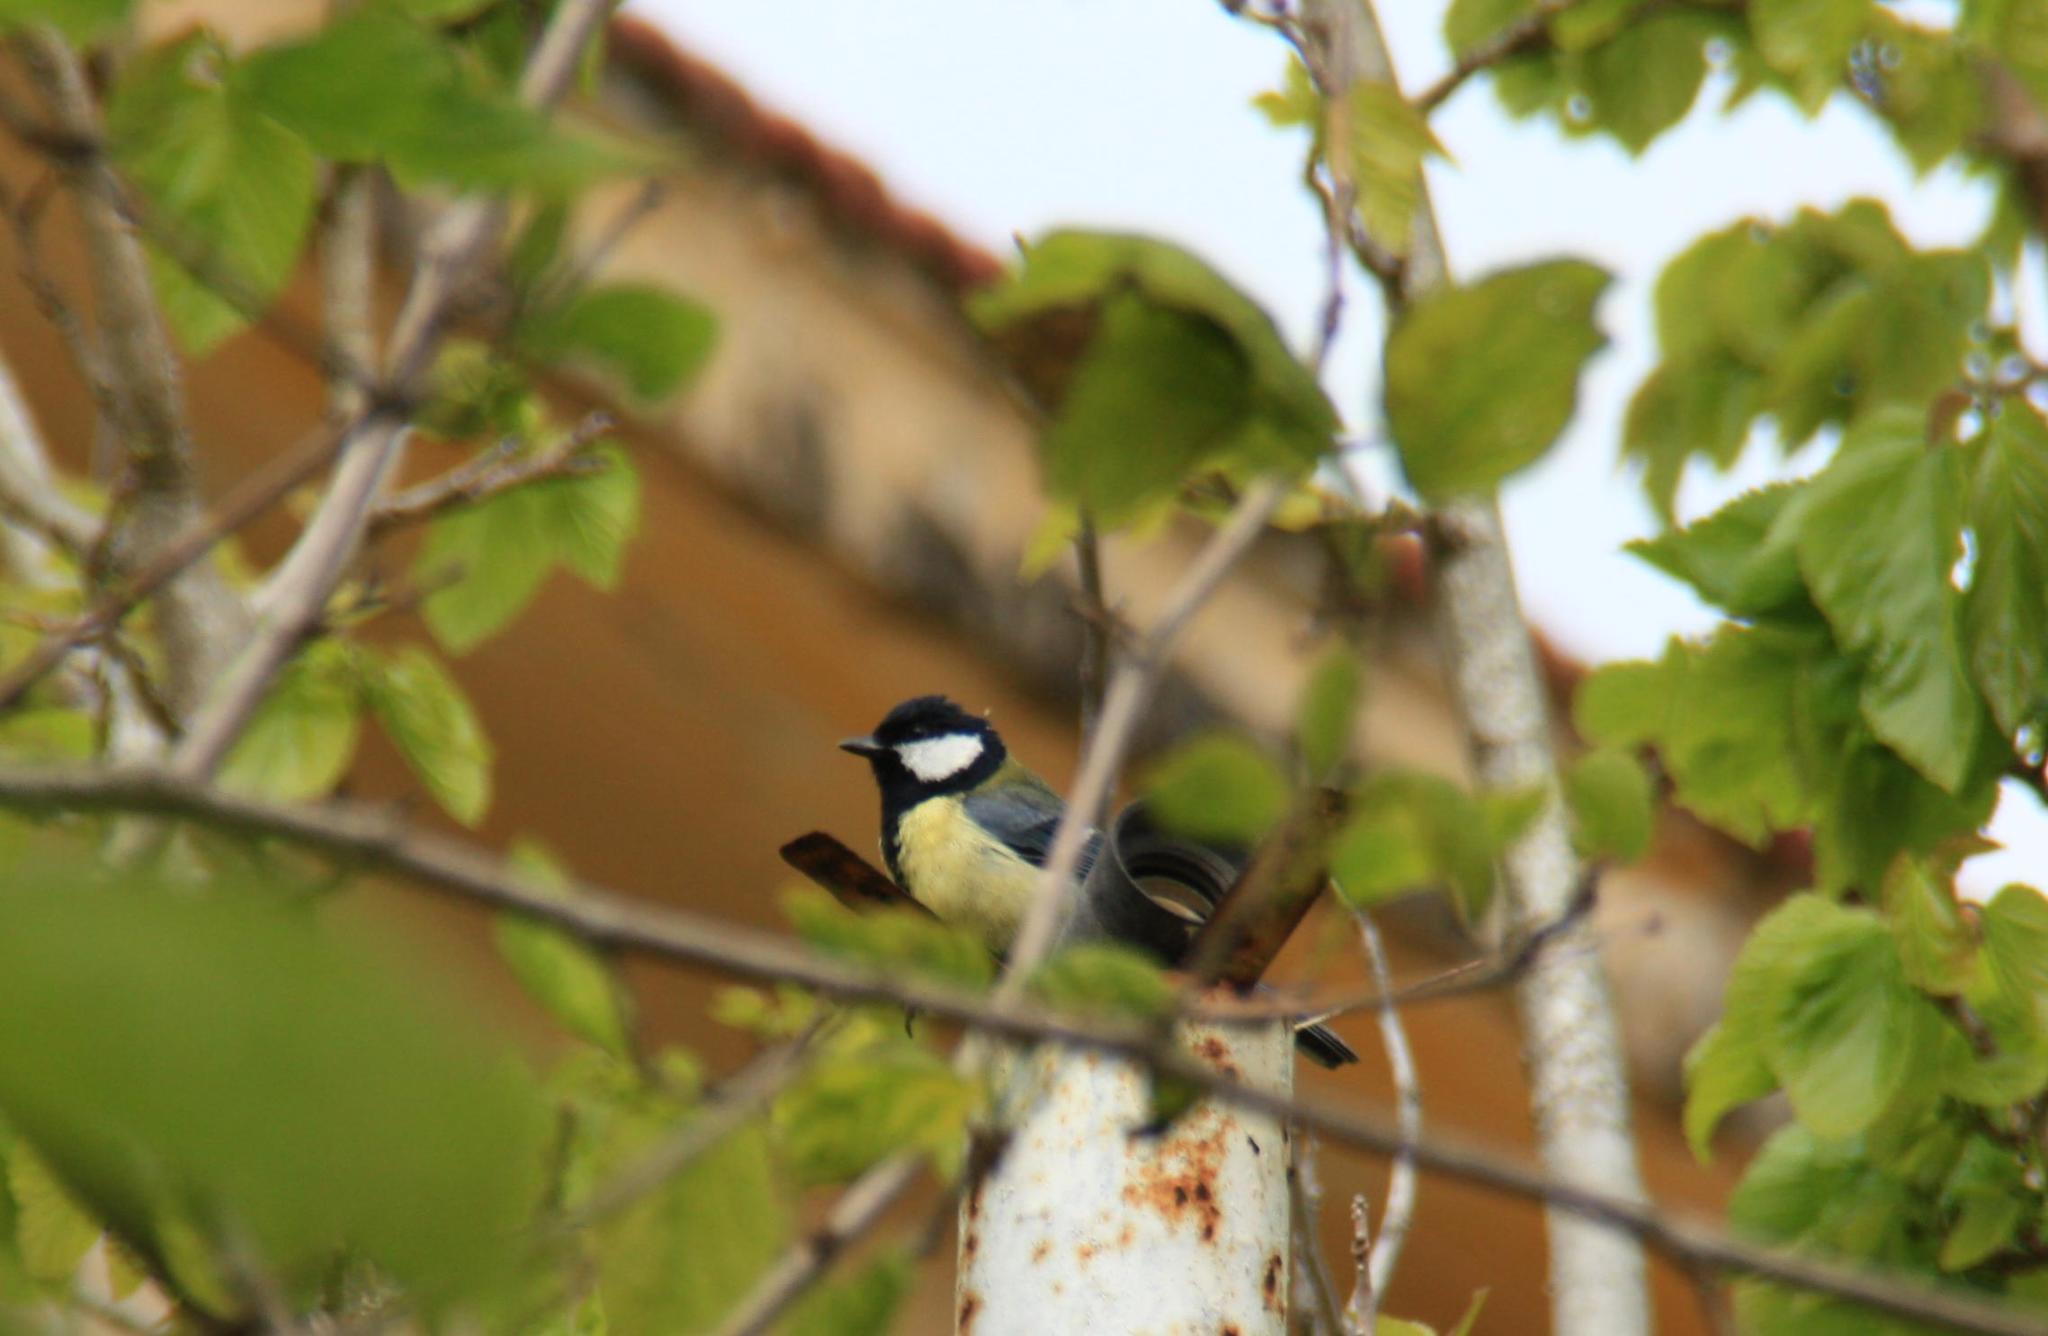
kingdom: Animalia
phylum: Chordata
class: Aves
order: Passeriformes
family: Paridae
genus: Parus
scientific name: Parus major
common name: Great tit
